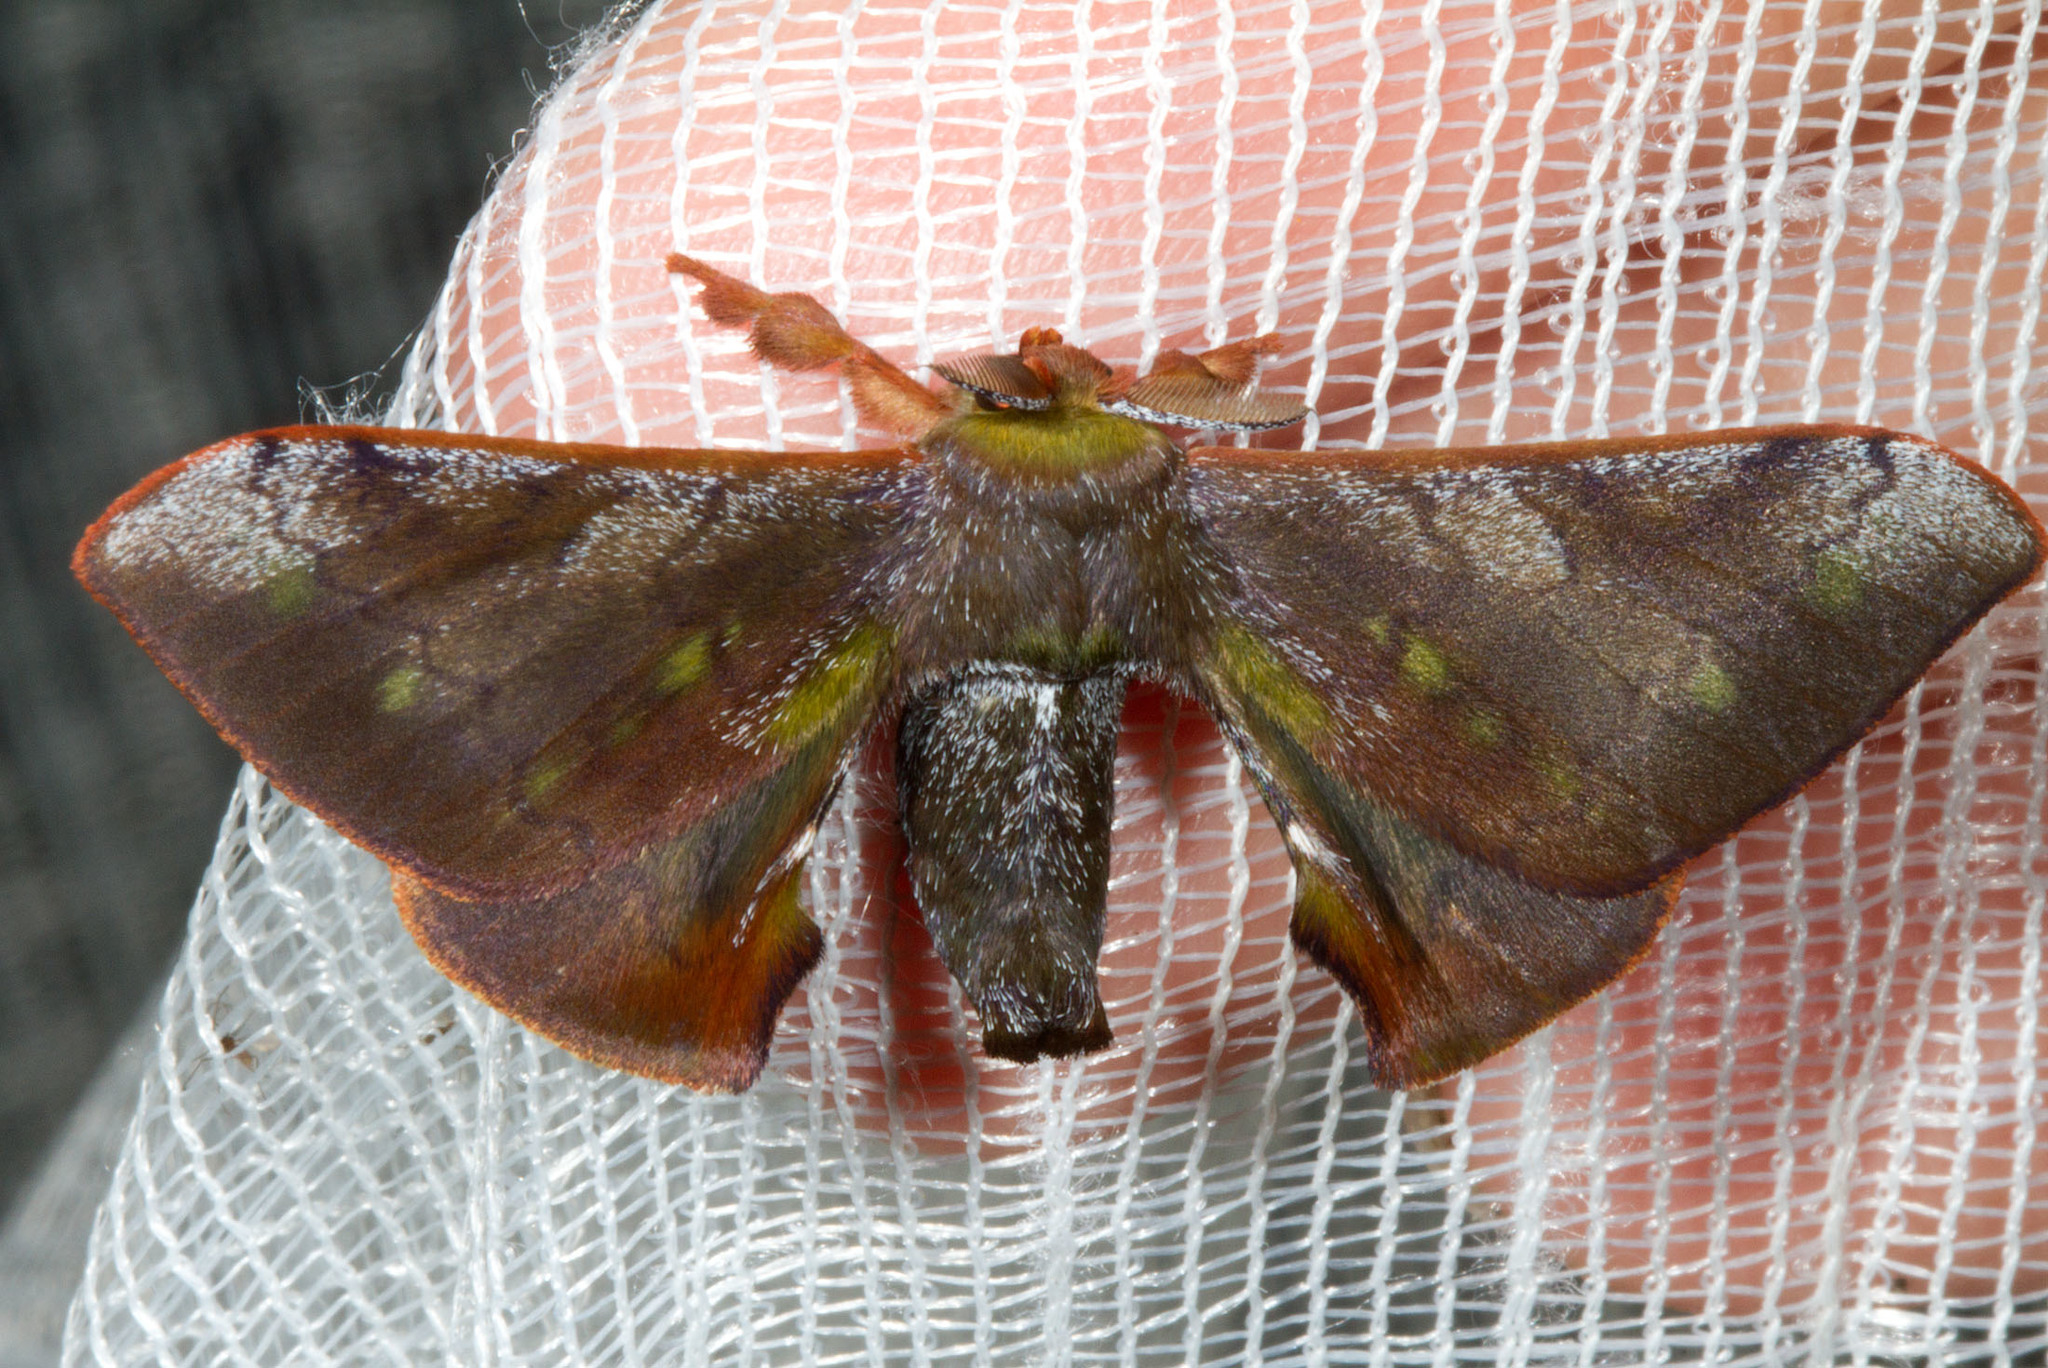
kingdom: Animalia
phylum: Arthropoda
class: Insecta
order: Lepidoptera
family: Bombycidae
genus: Epia
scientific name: Epia casnonia
